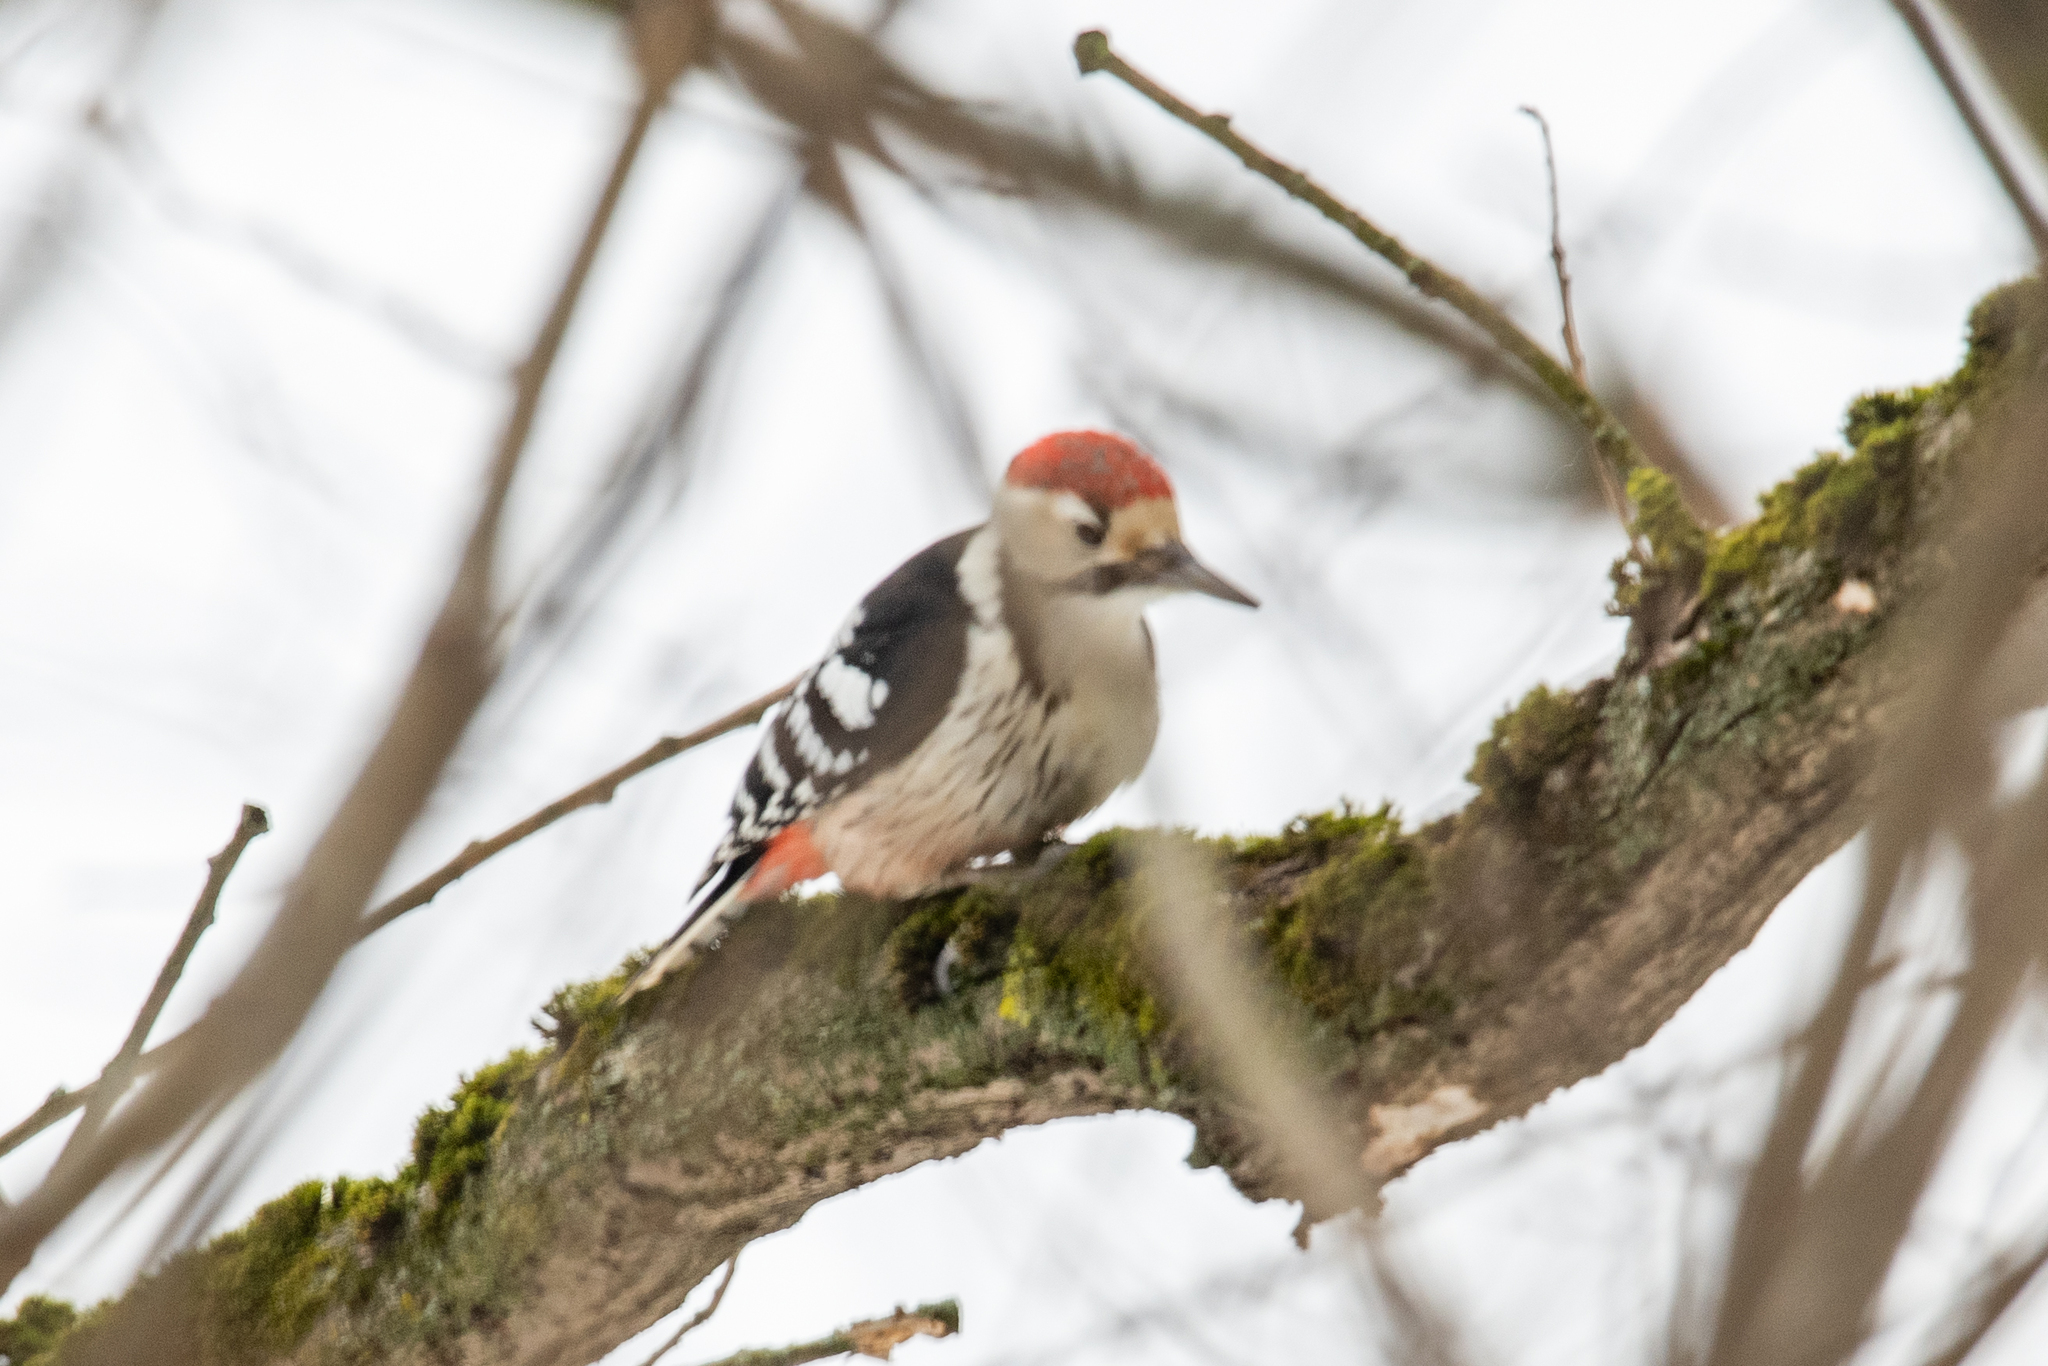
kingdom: Animalia
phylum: Chordata
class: Aves
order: Piciformes
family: Picidae
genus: Dendrocopos
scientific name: Dendrocopos leucotos
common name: White-backed woodpecker
